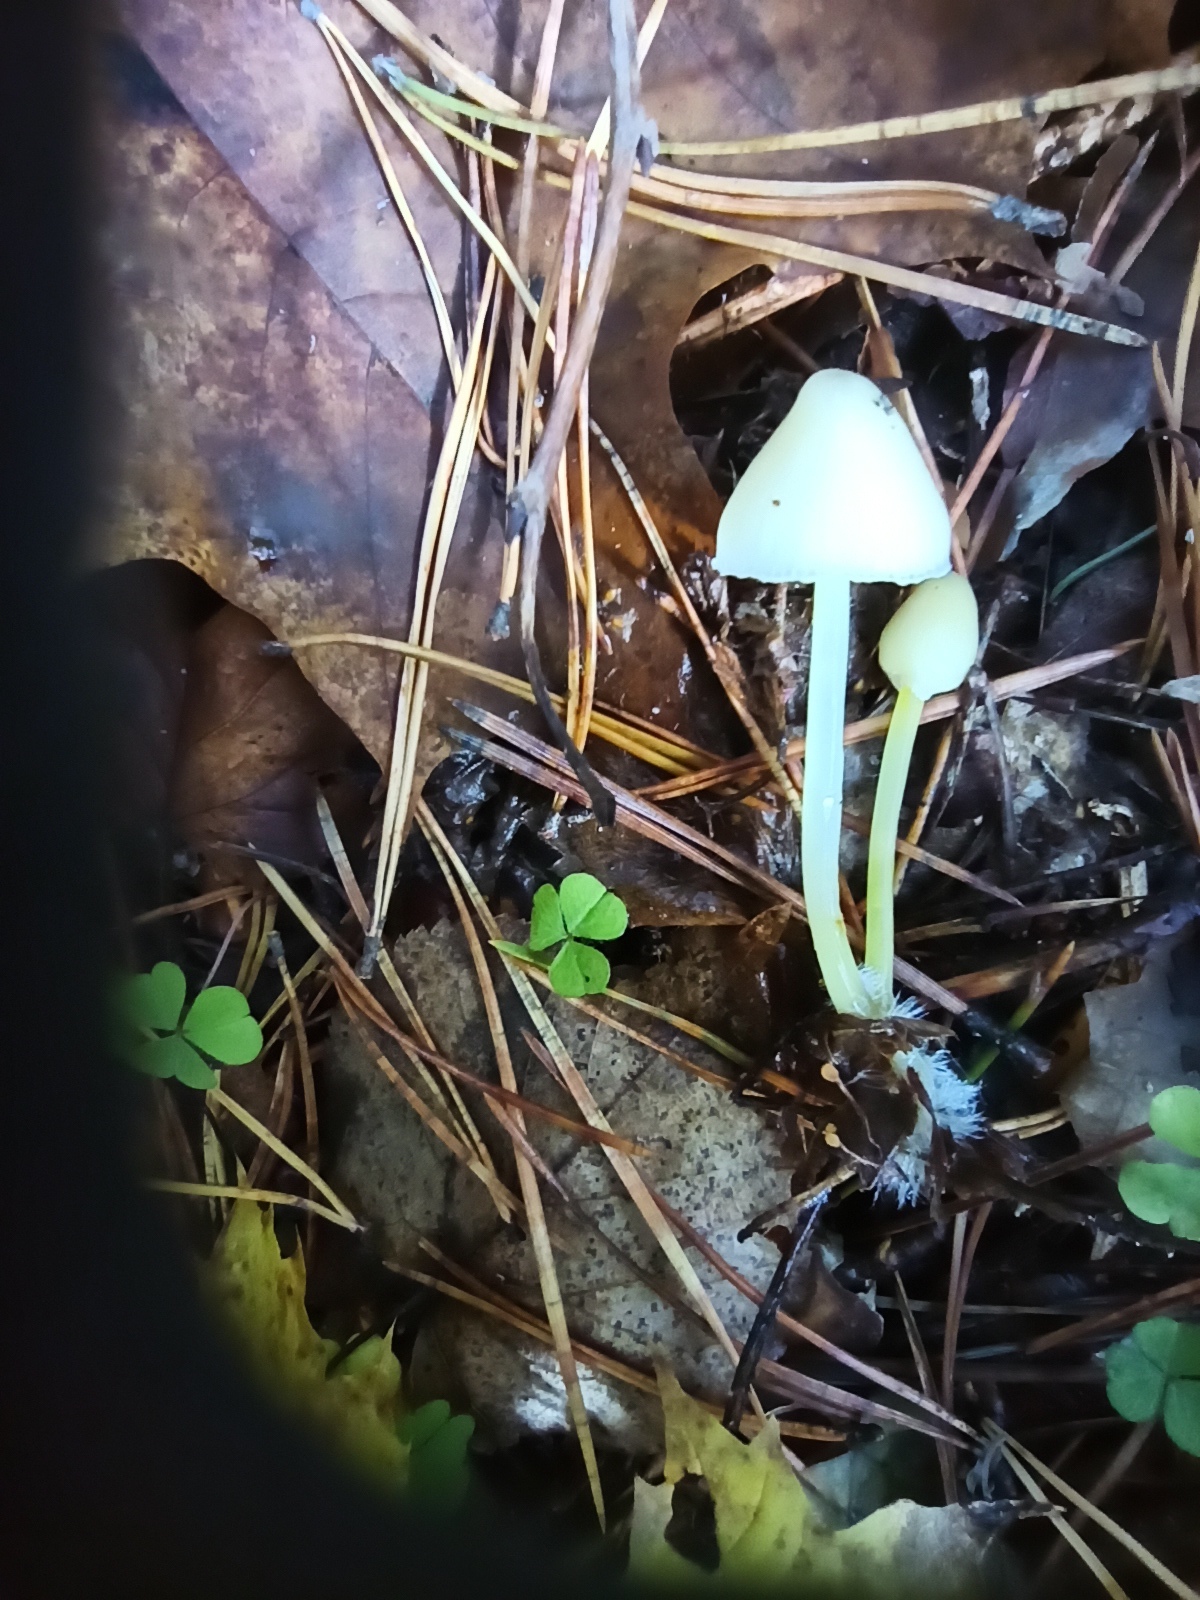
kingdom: Fungi
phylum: Basidiomycota
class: Agaricomycetes
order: Agaricales
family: Mycenaceae
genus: Mycena
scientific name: Mycena epipterygia
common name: Yellowleg bonnet
